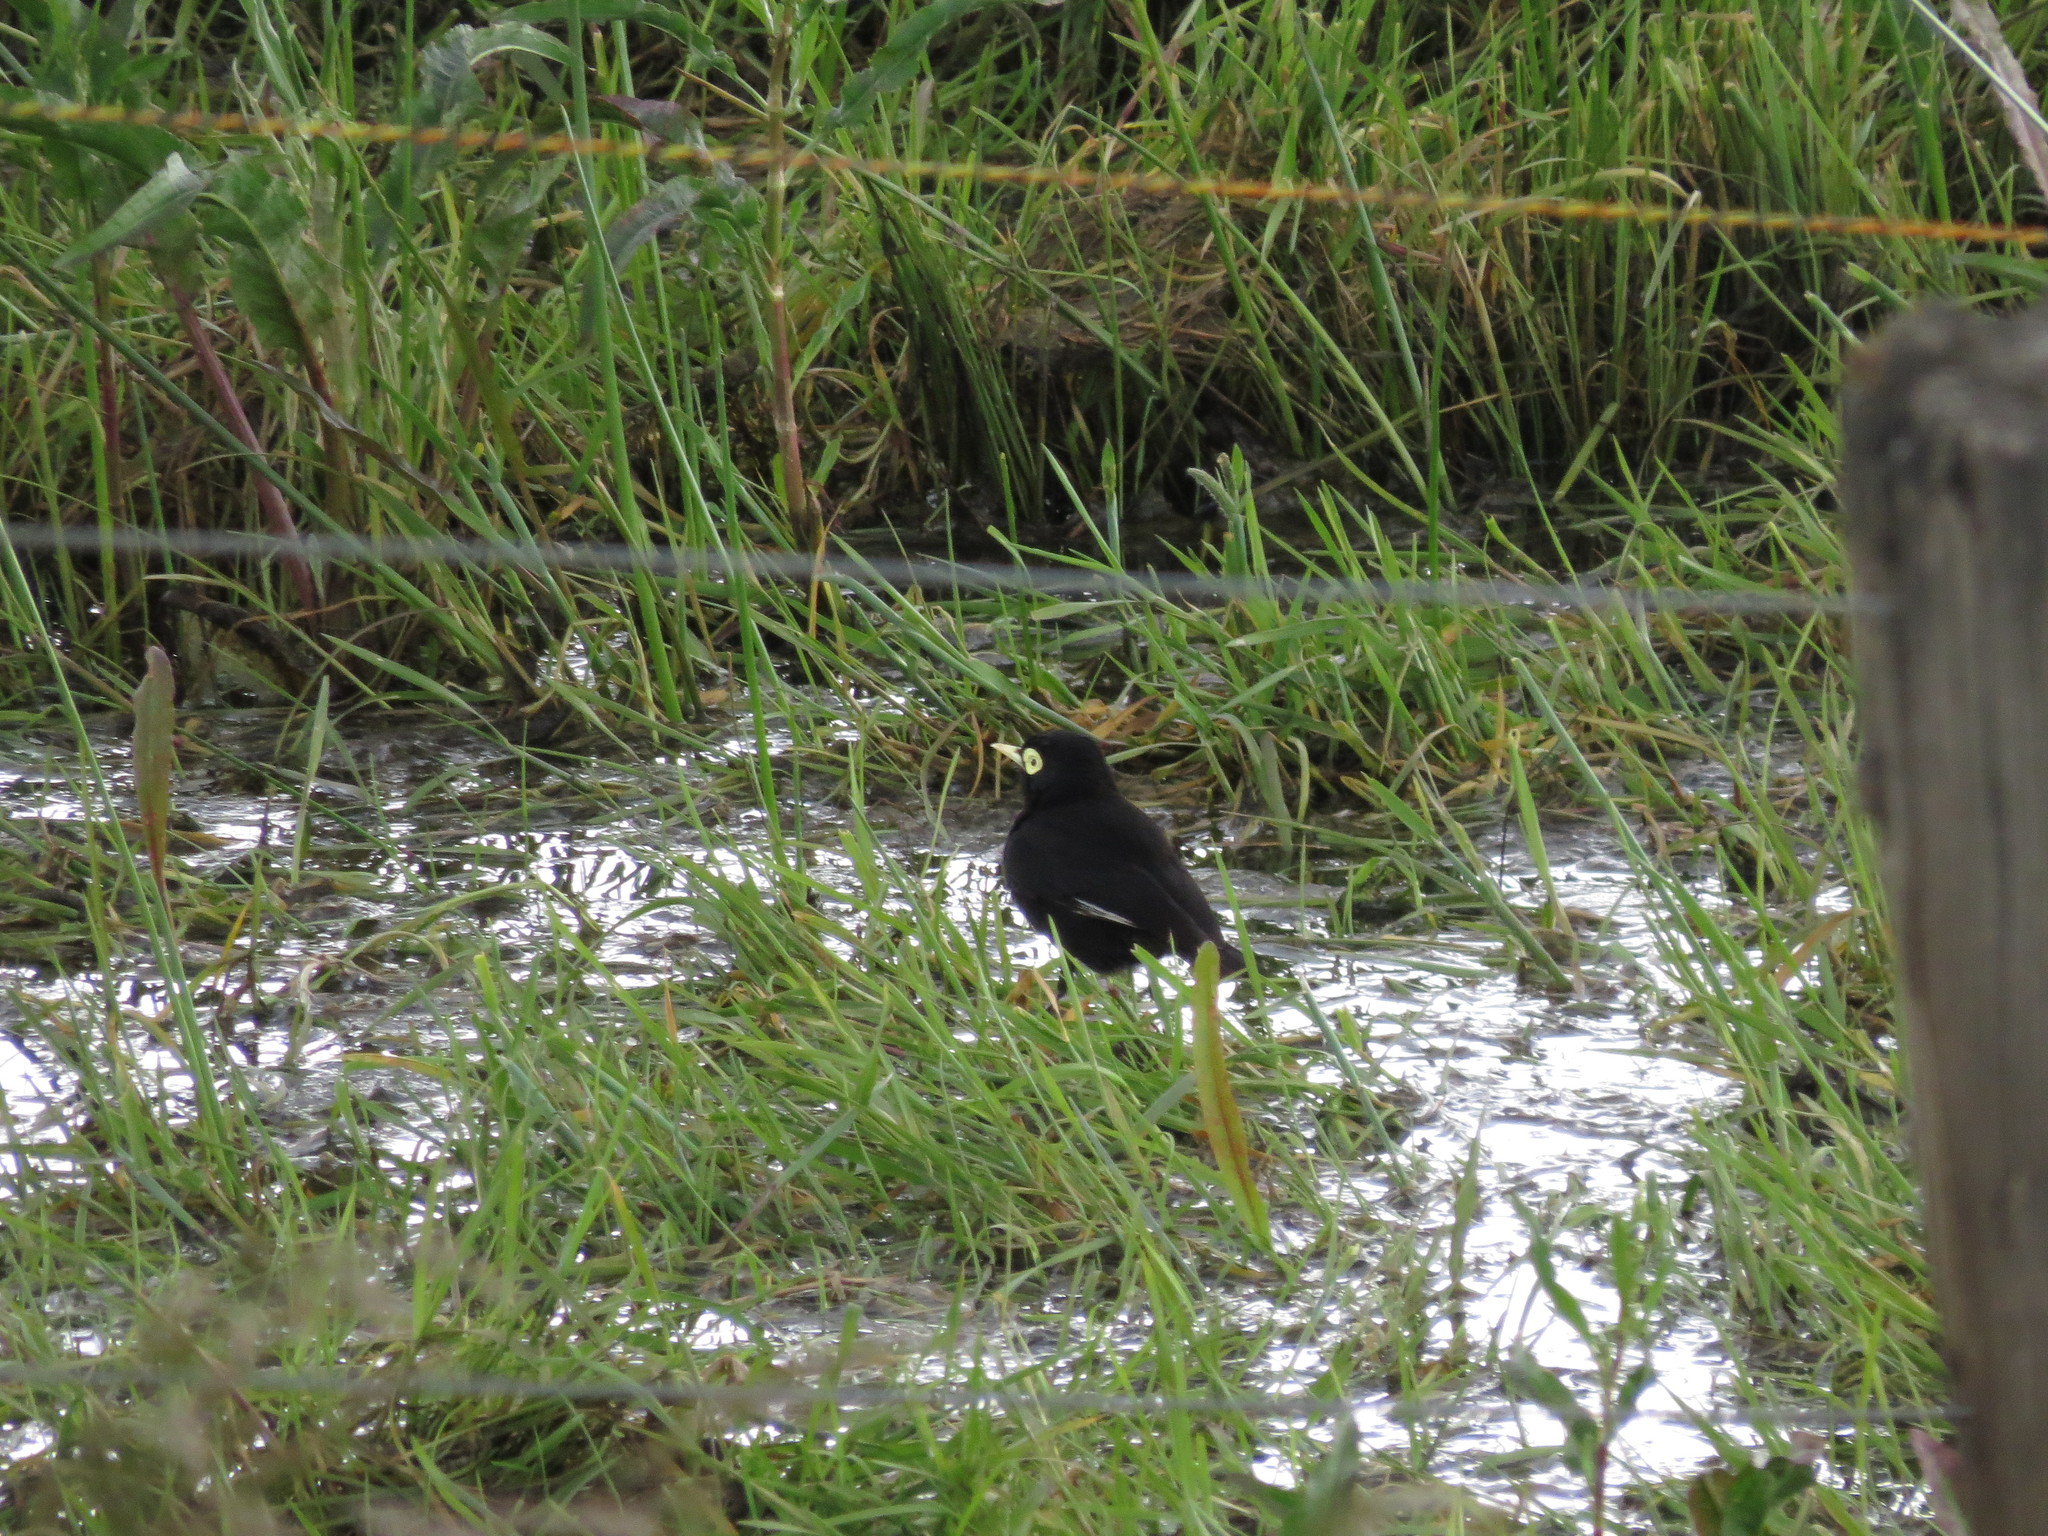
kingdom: Animalia
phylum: Chordata
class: Aves
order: Passeriformes
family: Tyrannidae
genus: Hymenops
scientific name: Hymenops perspicillatus
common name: Spectacled tyrant
